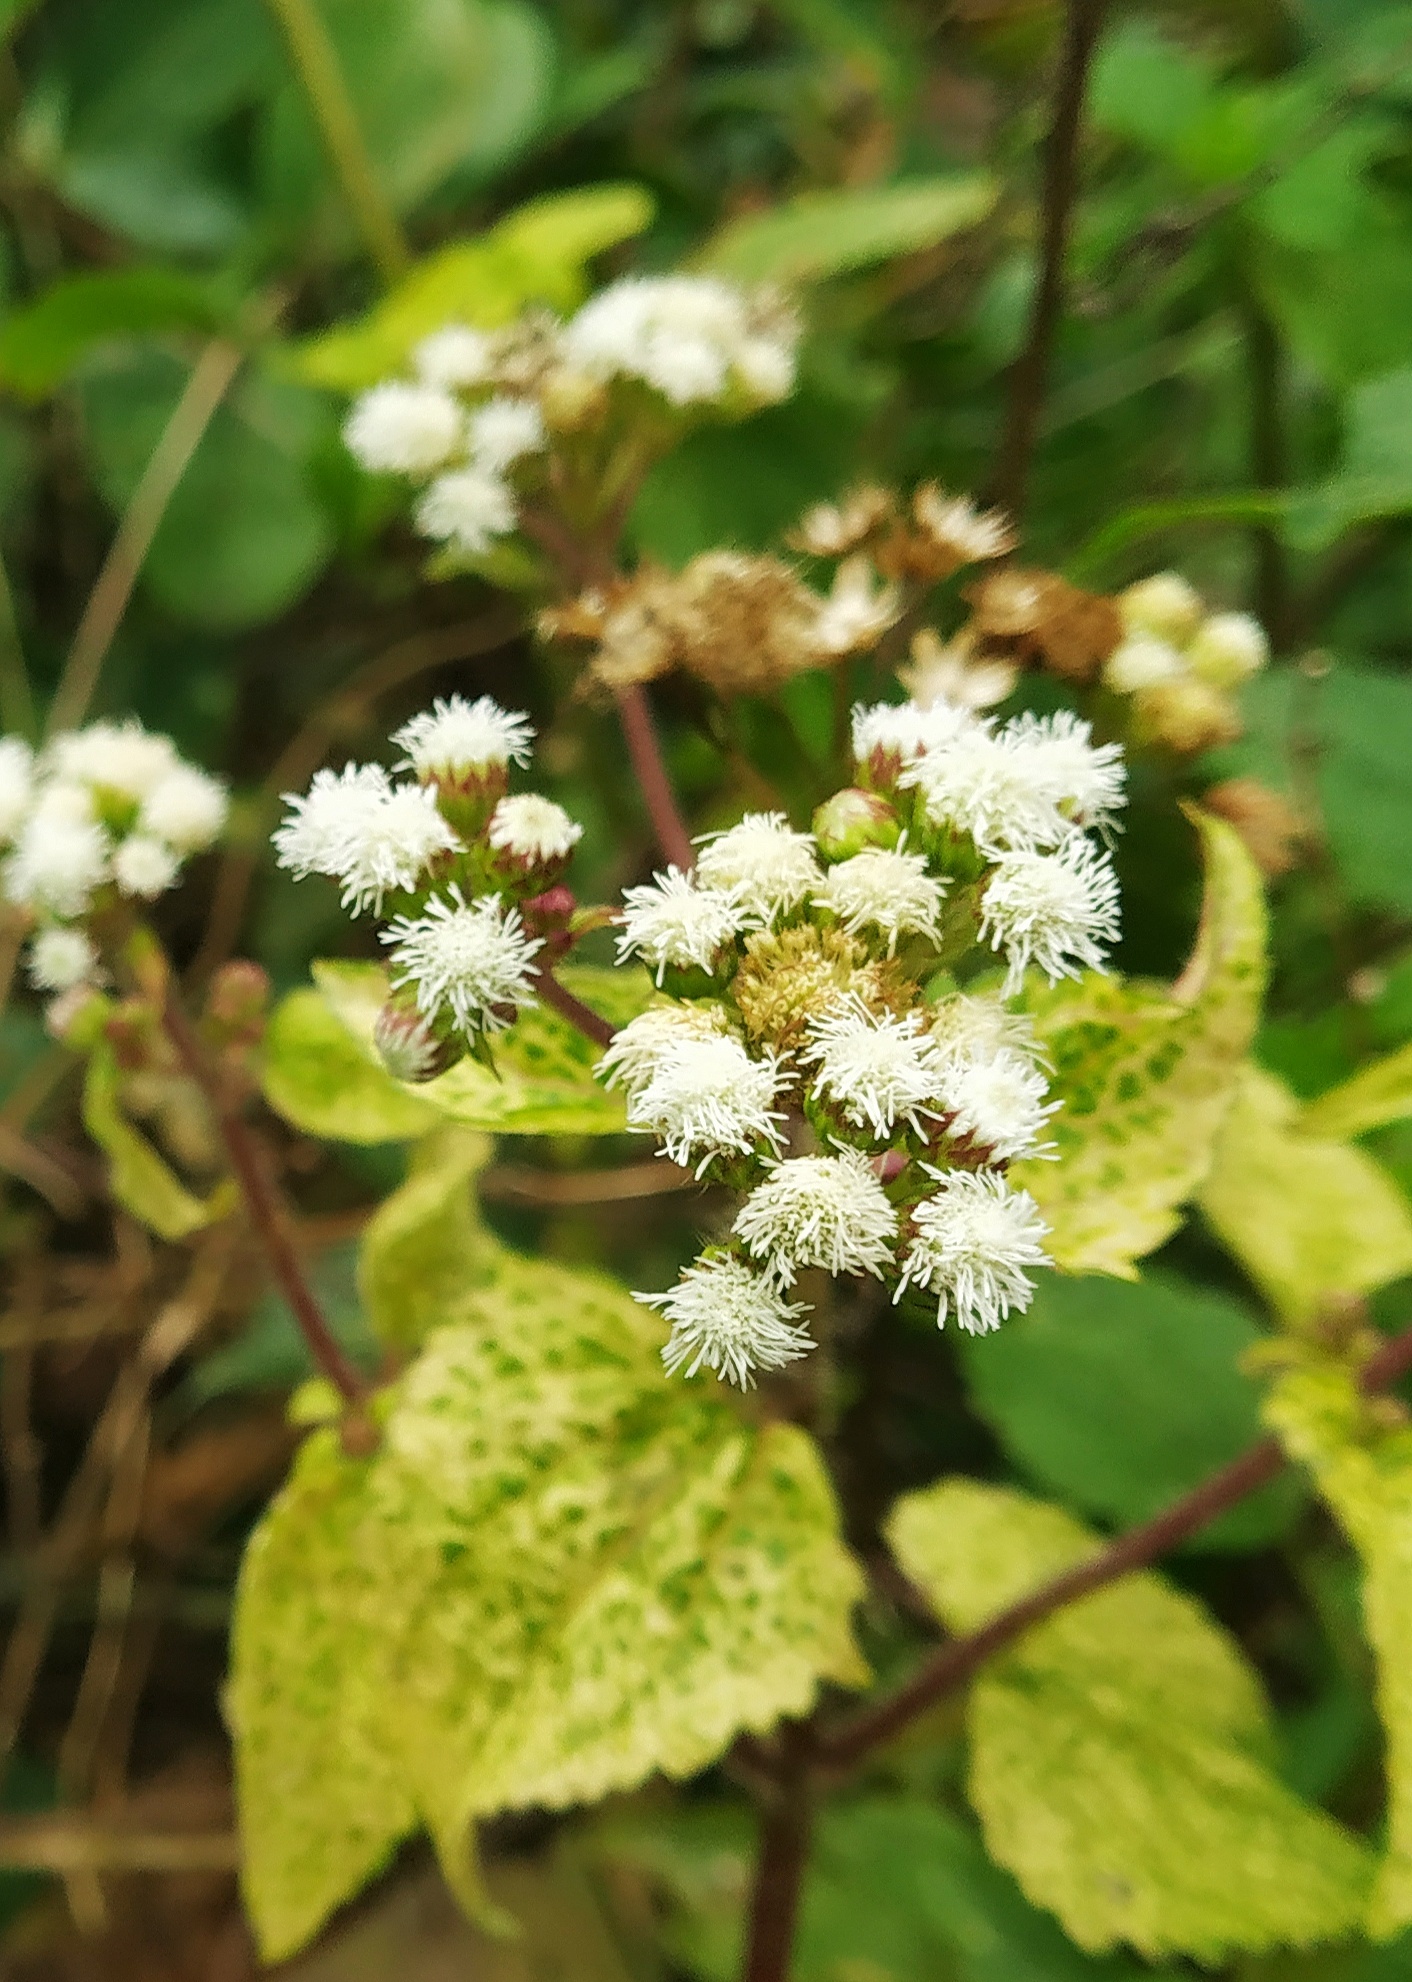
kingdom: Plantae
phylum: Tracheophyta
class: Magnoliopsida
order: Asterales
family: Asteraceae
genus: Ageratum
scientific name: Ageratum conyzoides
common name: Tropical whiteweed
